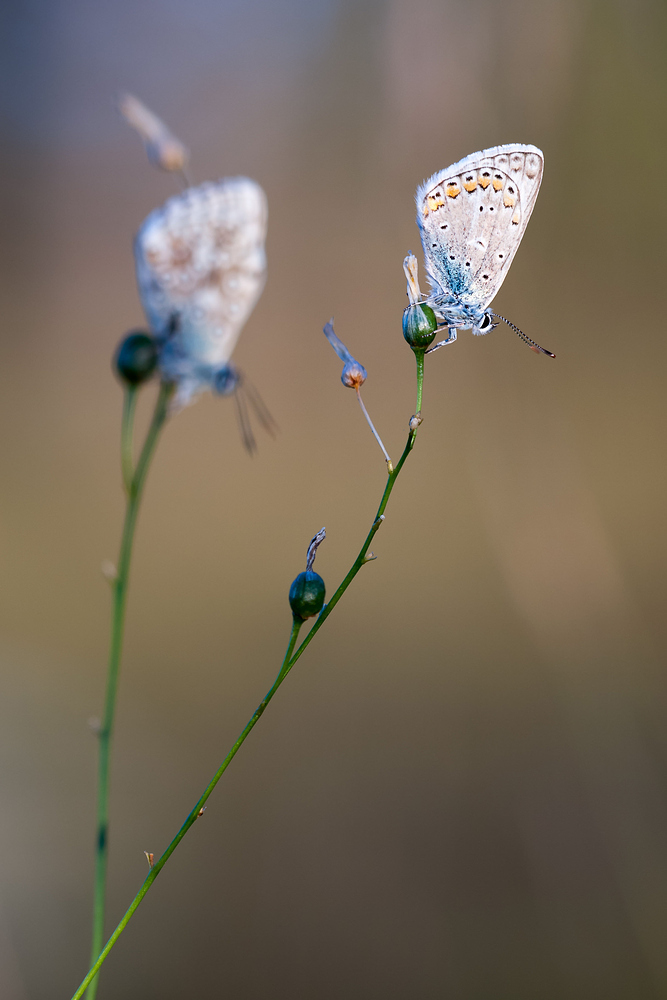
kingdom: Animalia
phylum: Arthropoda
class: Insecta
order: Lepidoptera
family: Lycaenidae
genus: Polyommatus
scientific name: Polyommatus icarus
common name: Common blue
